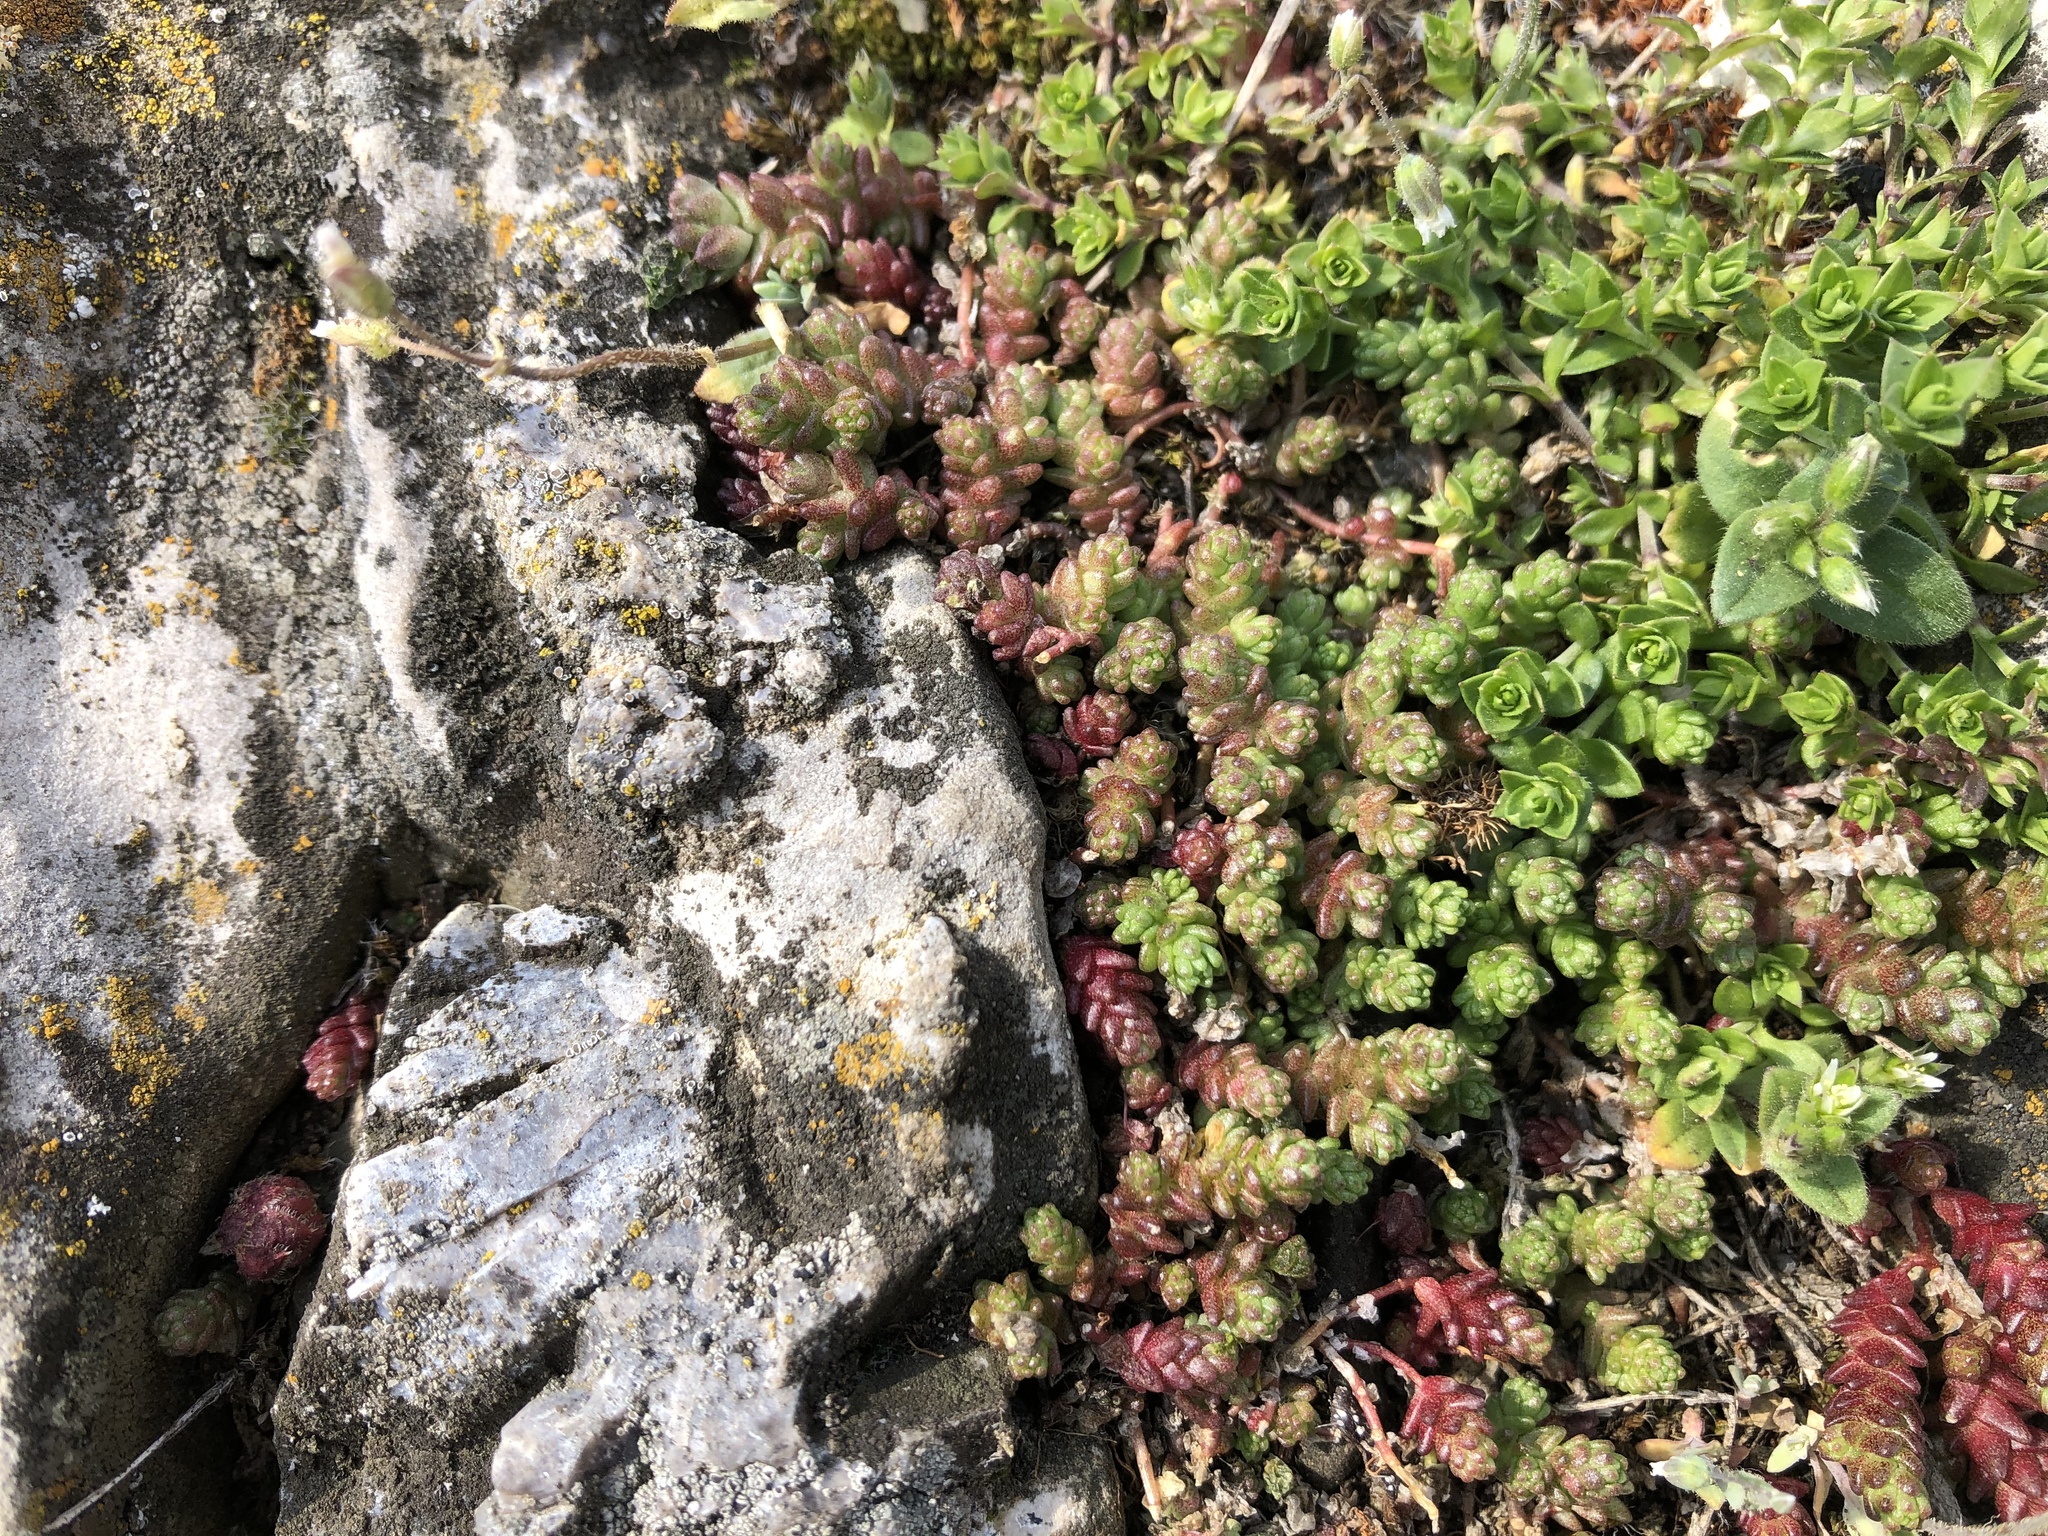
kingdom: Plantae
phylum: Tracheophyta
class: Magnoliopsida
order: Saxifragales
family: Crassulaceae
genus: Sedum
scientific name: Sedum acre
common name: Biting stonecrop
